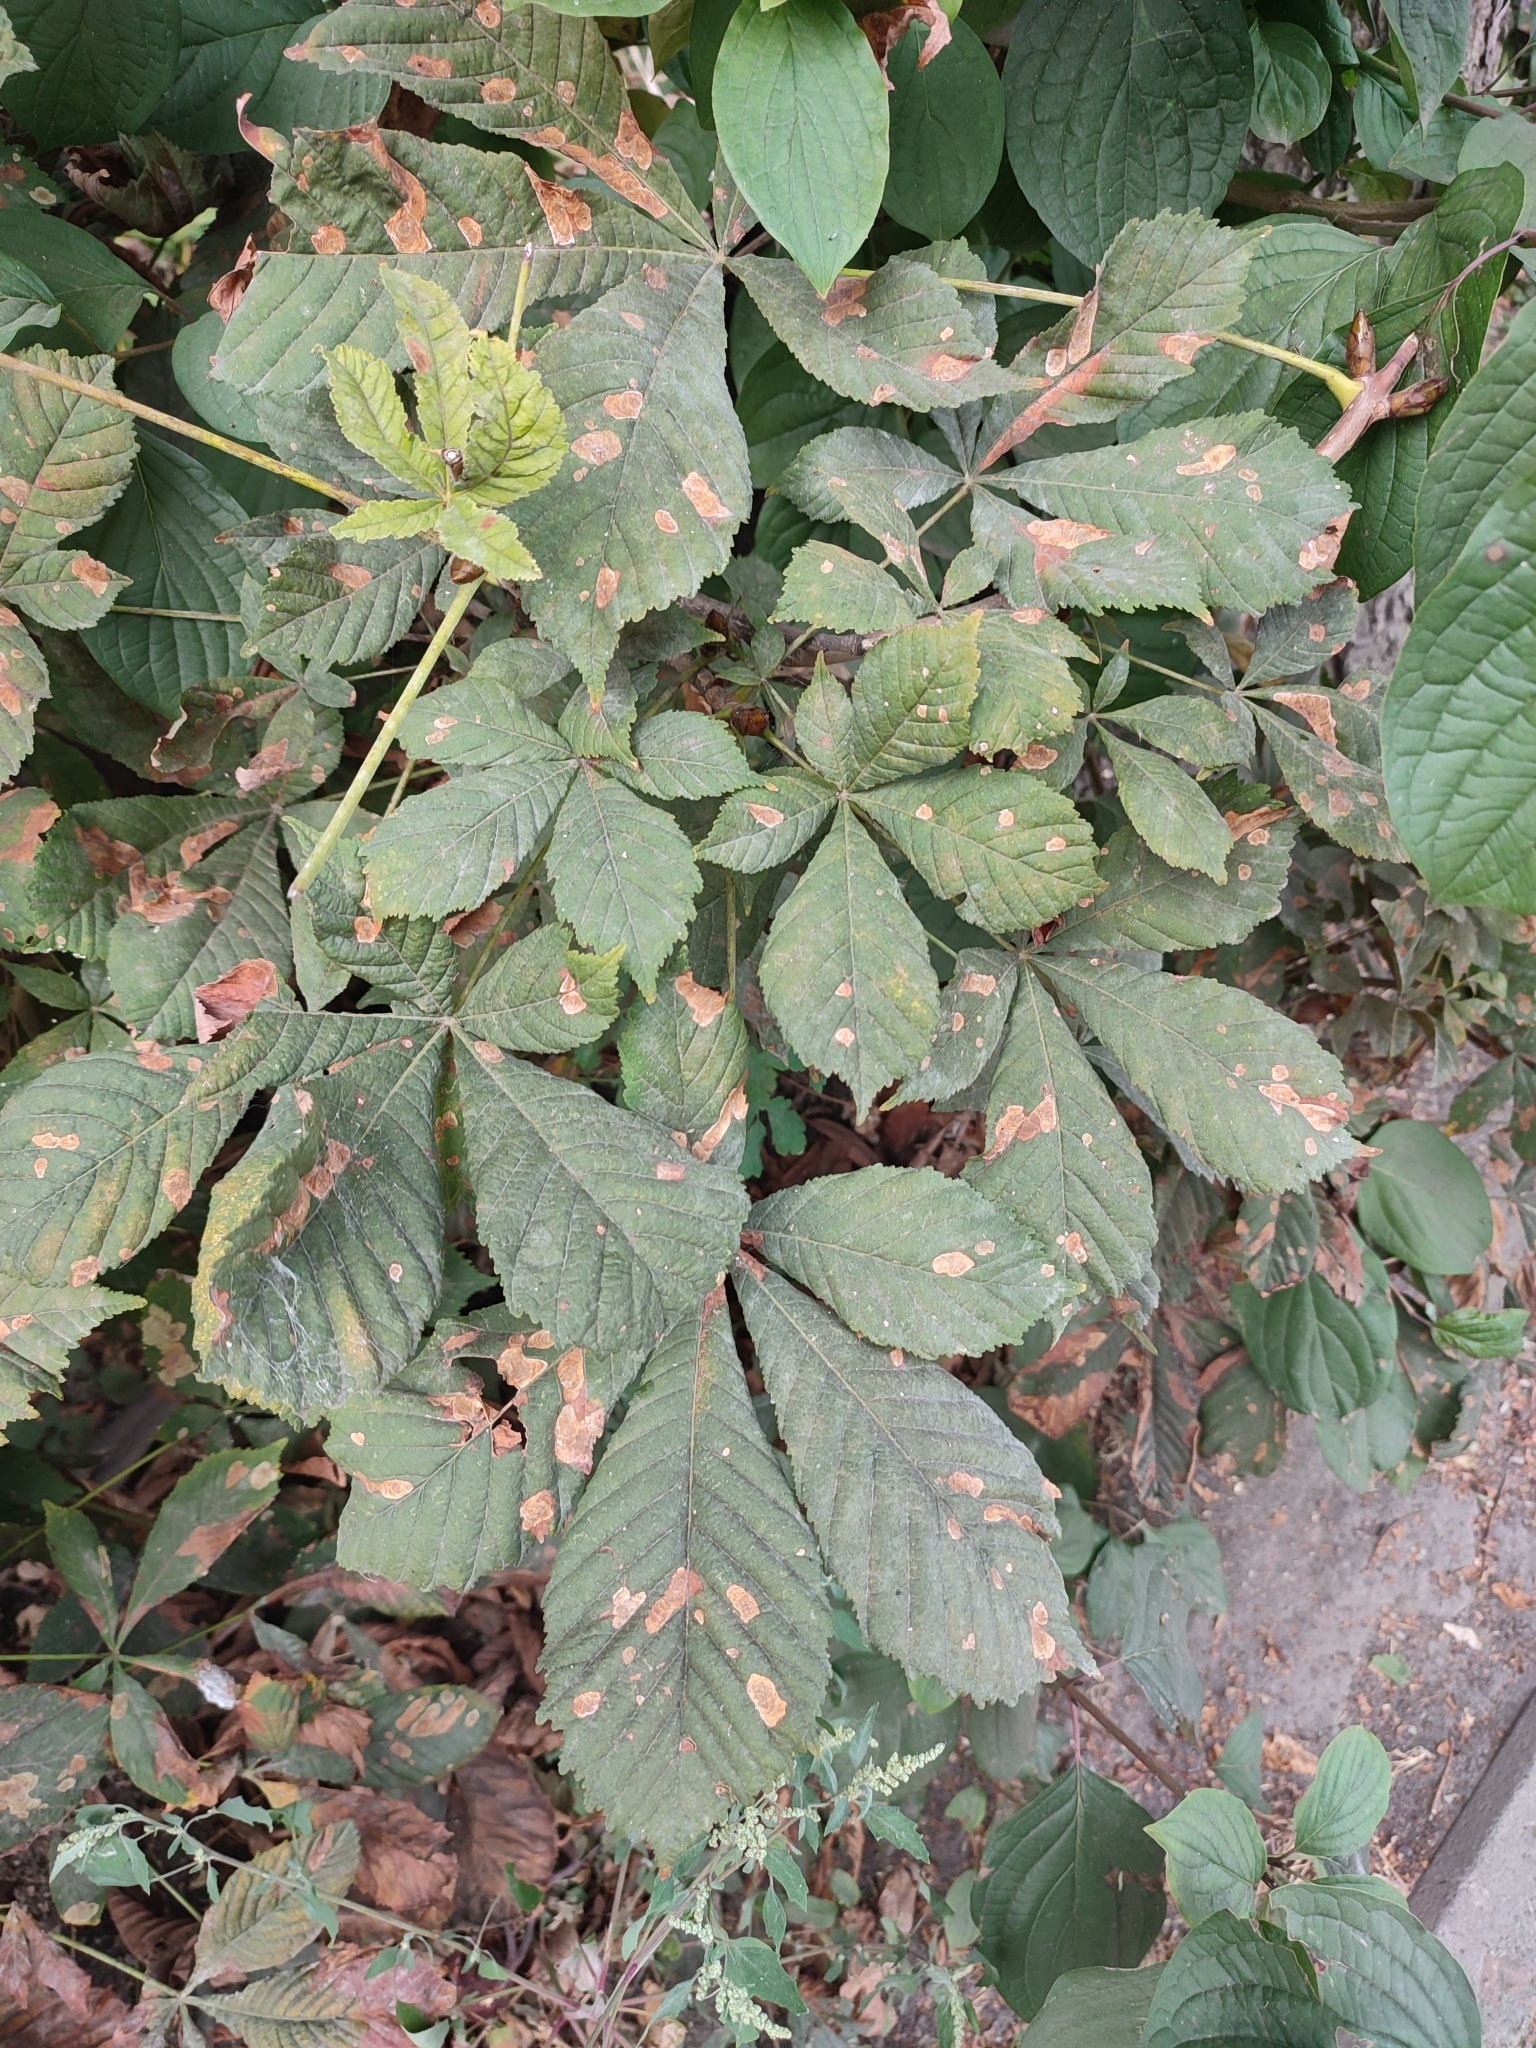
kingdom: Animalia
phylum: Arthropoda
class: Insecta
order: Lepidoptera
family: Gracillariidae
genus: Cameraria
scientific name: Cameraria ohridella
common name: Horse-chestnut leaf-miner
